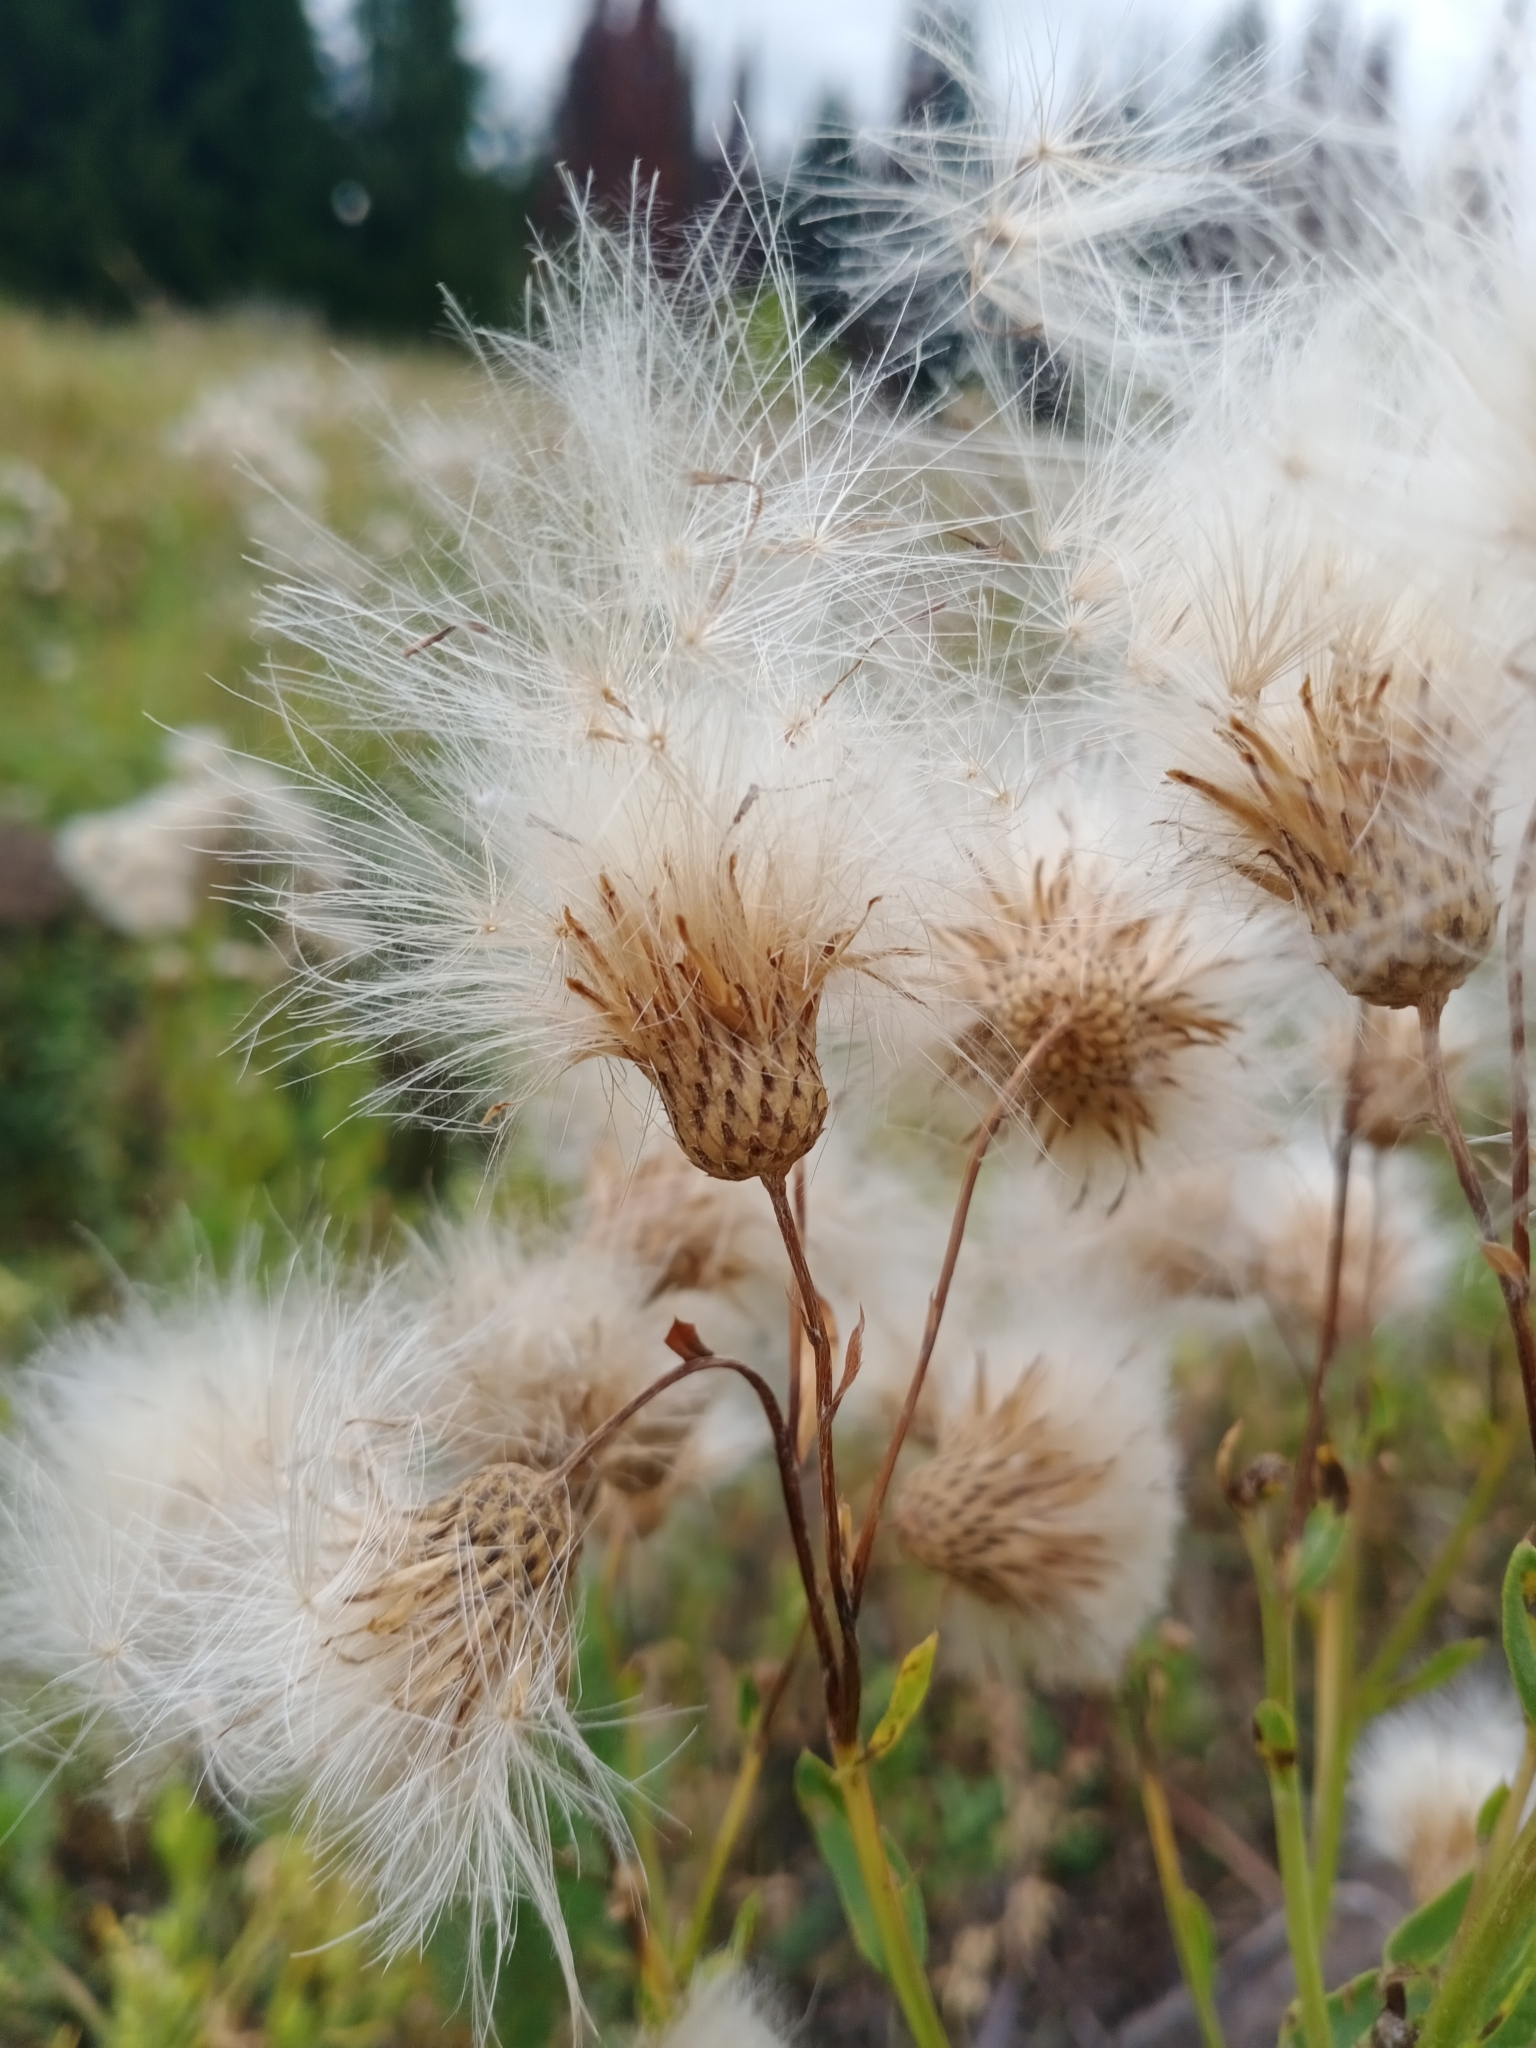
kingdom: Plantae
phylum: Tracheophyta
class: Magnoliopsida
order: Asterales
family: Asteraceae
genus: Cirsium
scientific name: Cirsium arvense
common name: Creeping thistle
